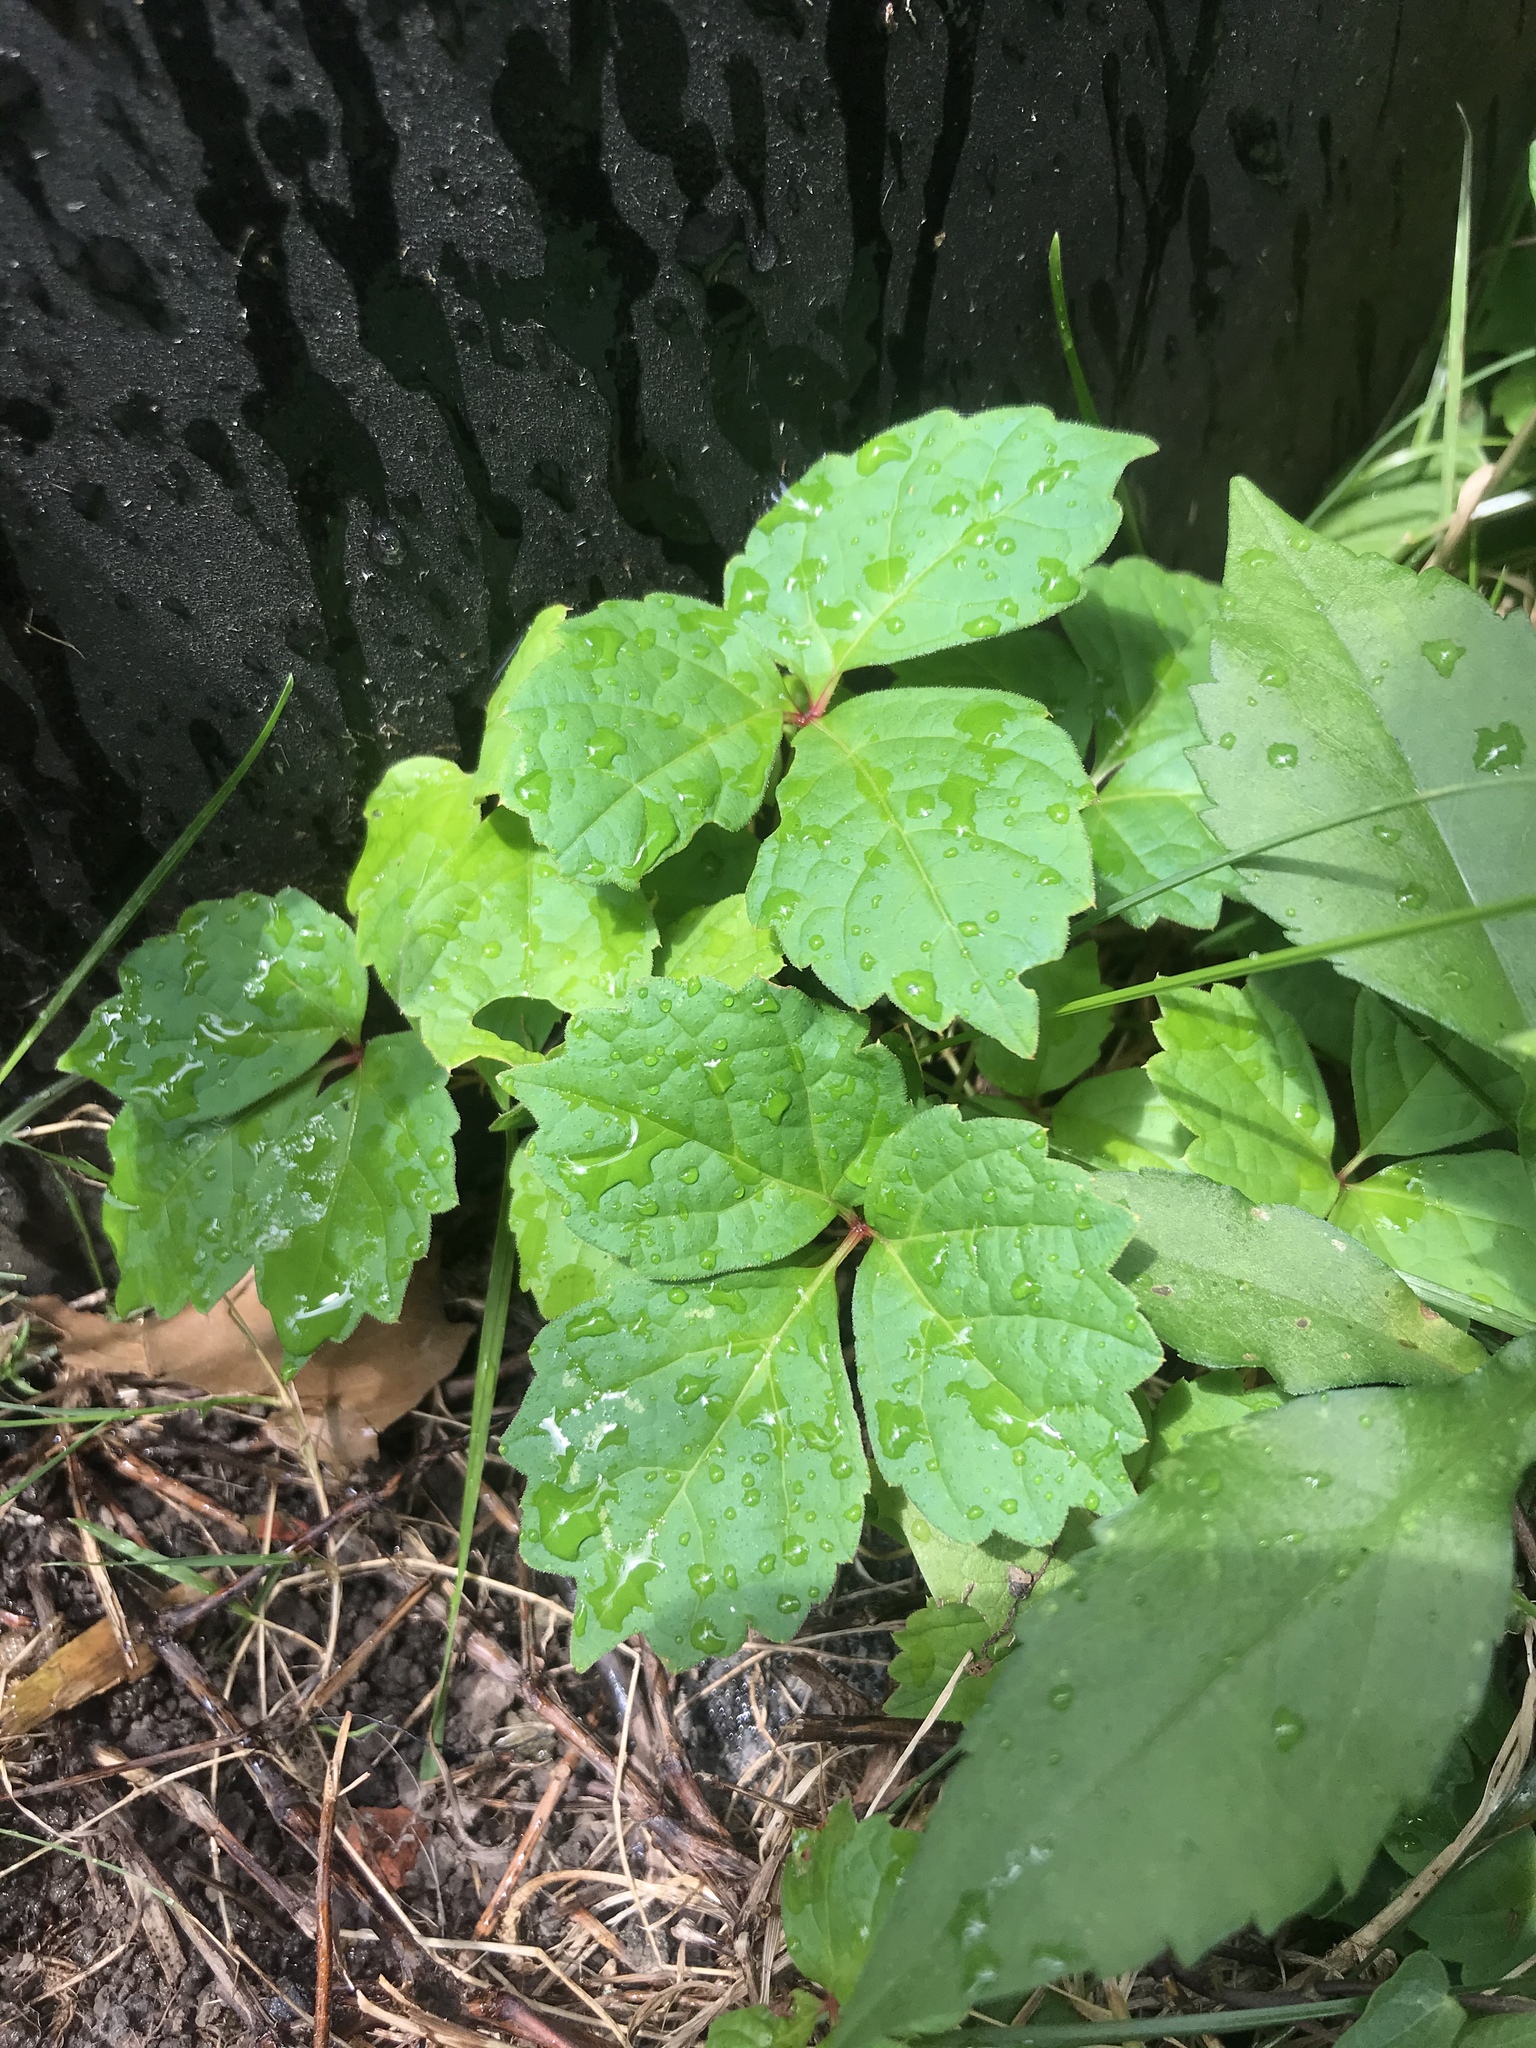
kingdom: Plantae
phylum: Tracheophyta
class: Magnoliopsida
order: Vitales
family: Vitaceae
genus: Parthenocissus
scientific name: Parthenocissus tricuspidata
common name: Boston ivy
